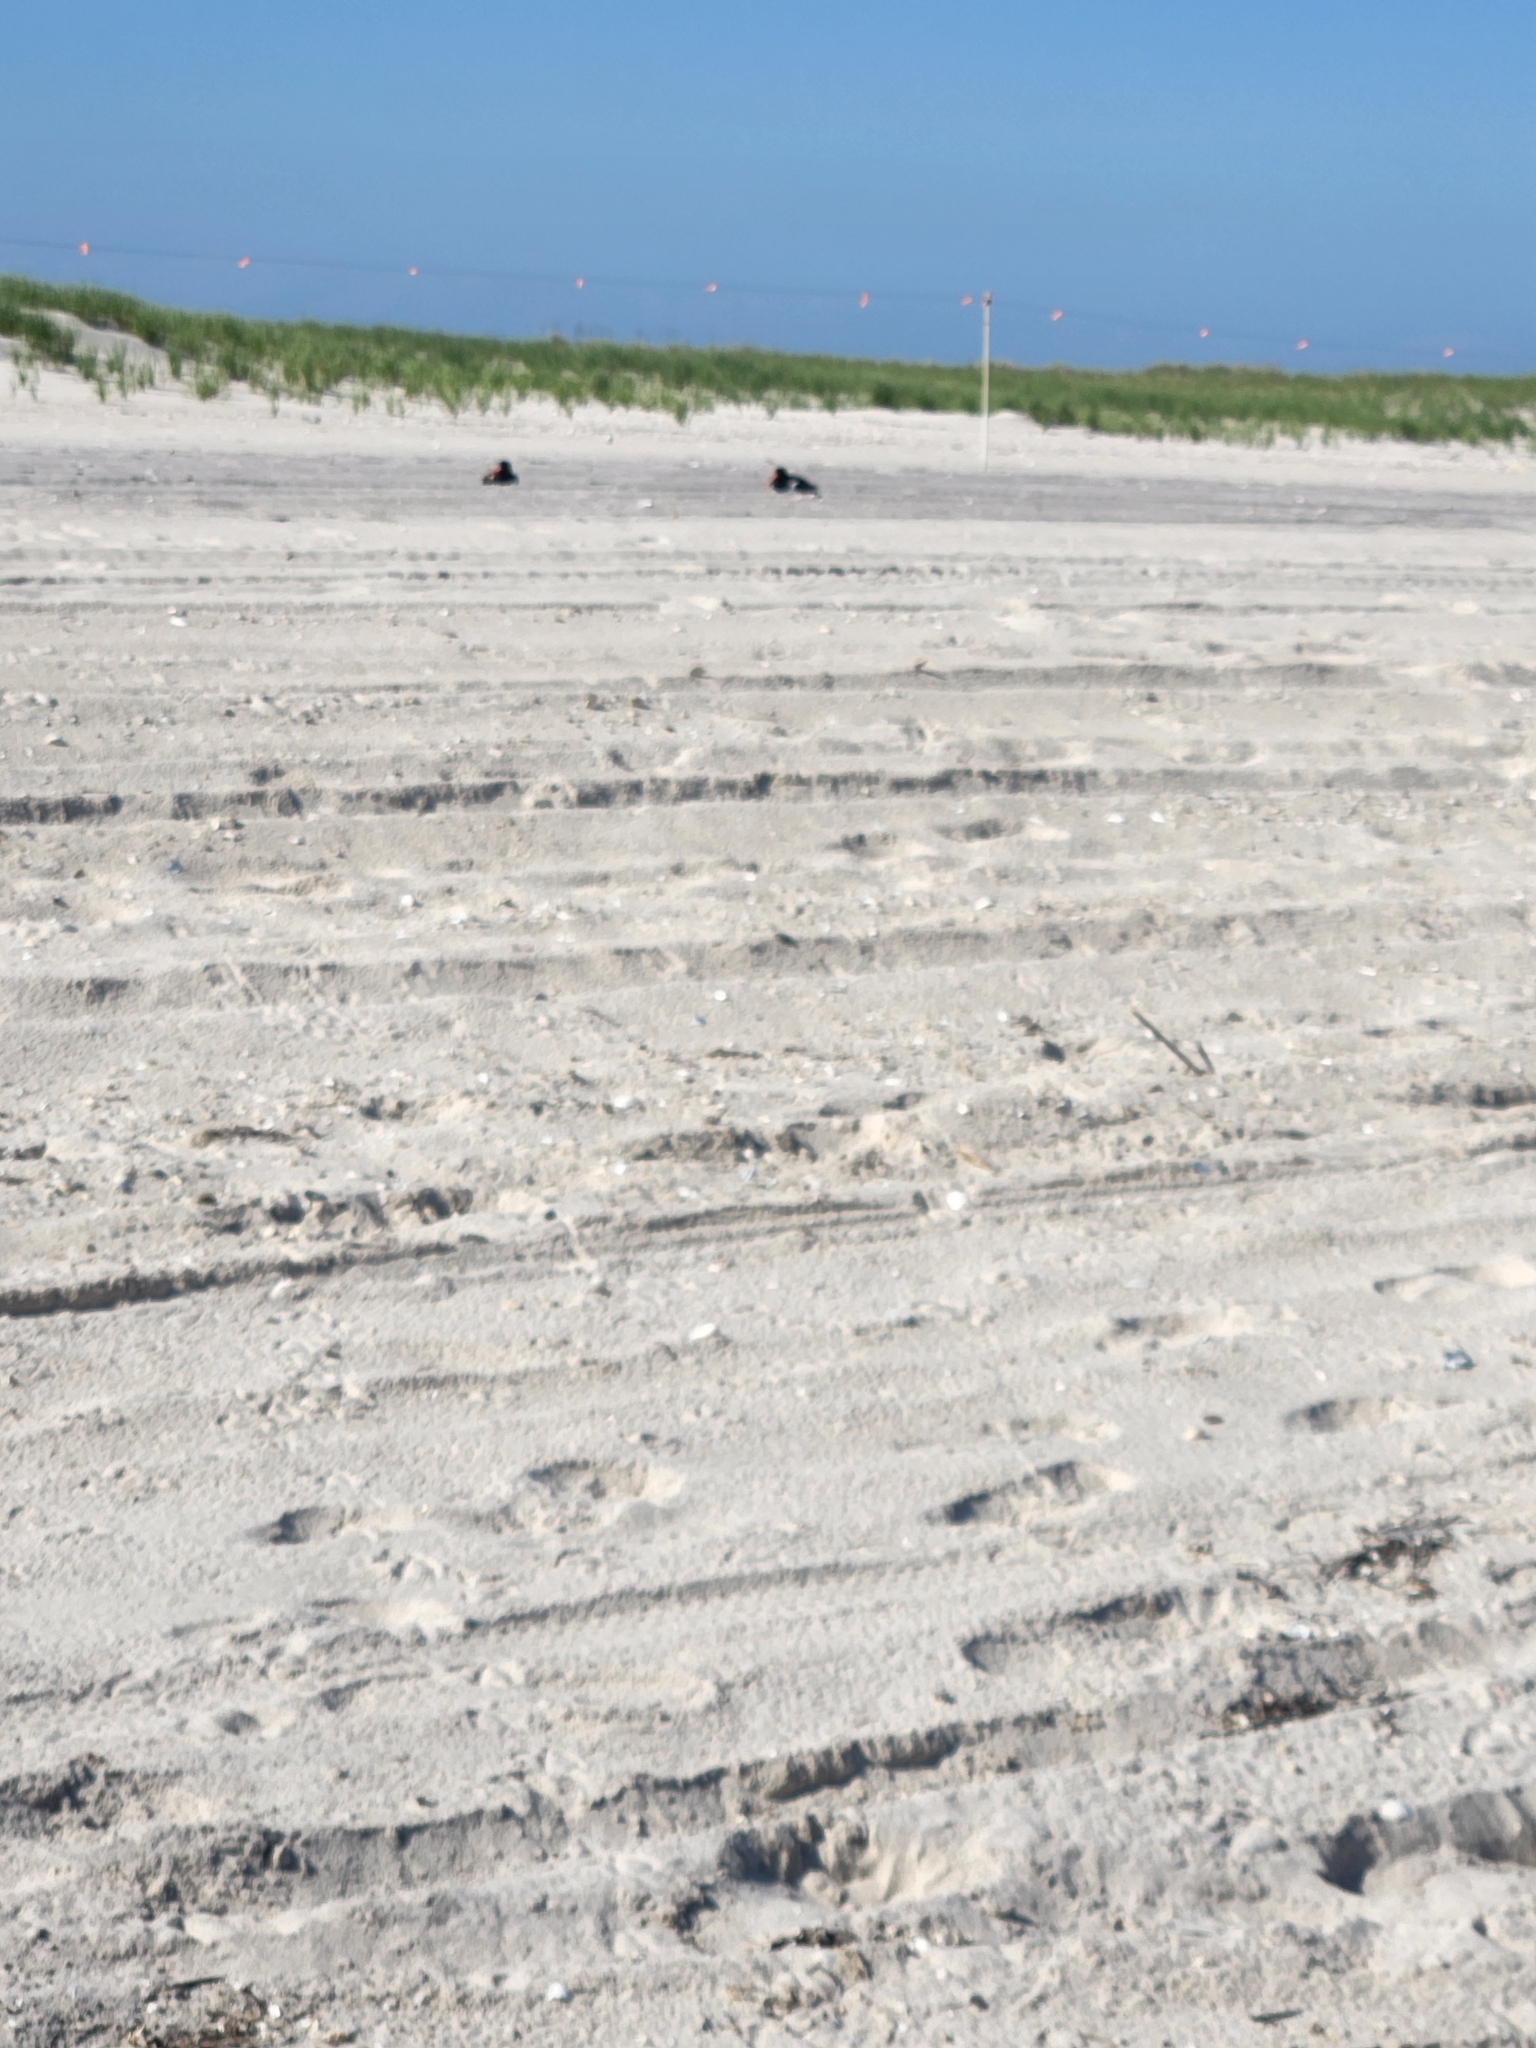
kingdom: Animalia
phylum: Chordata
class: Aves
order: Charadriiformes
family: Haematopodidae
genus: Haematopus
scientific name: Haematopus palliatus
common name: American oystercatcher
